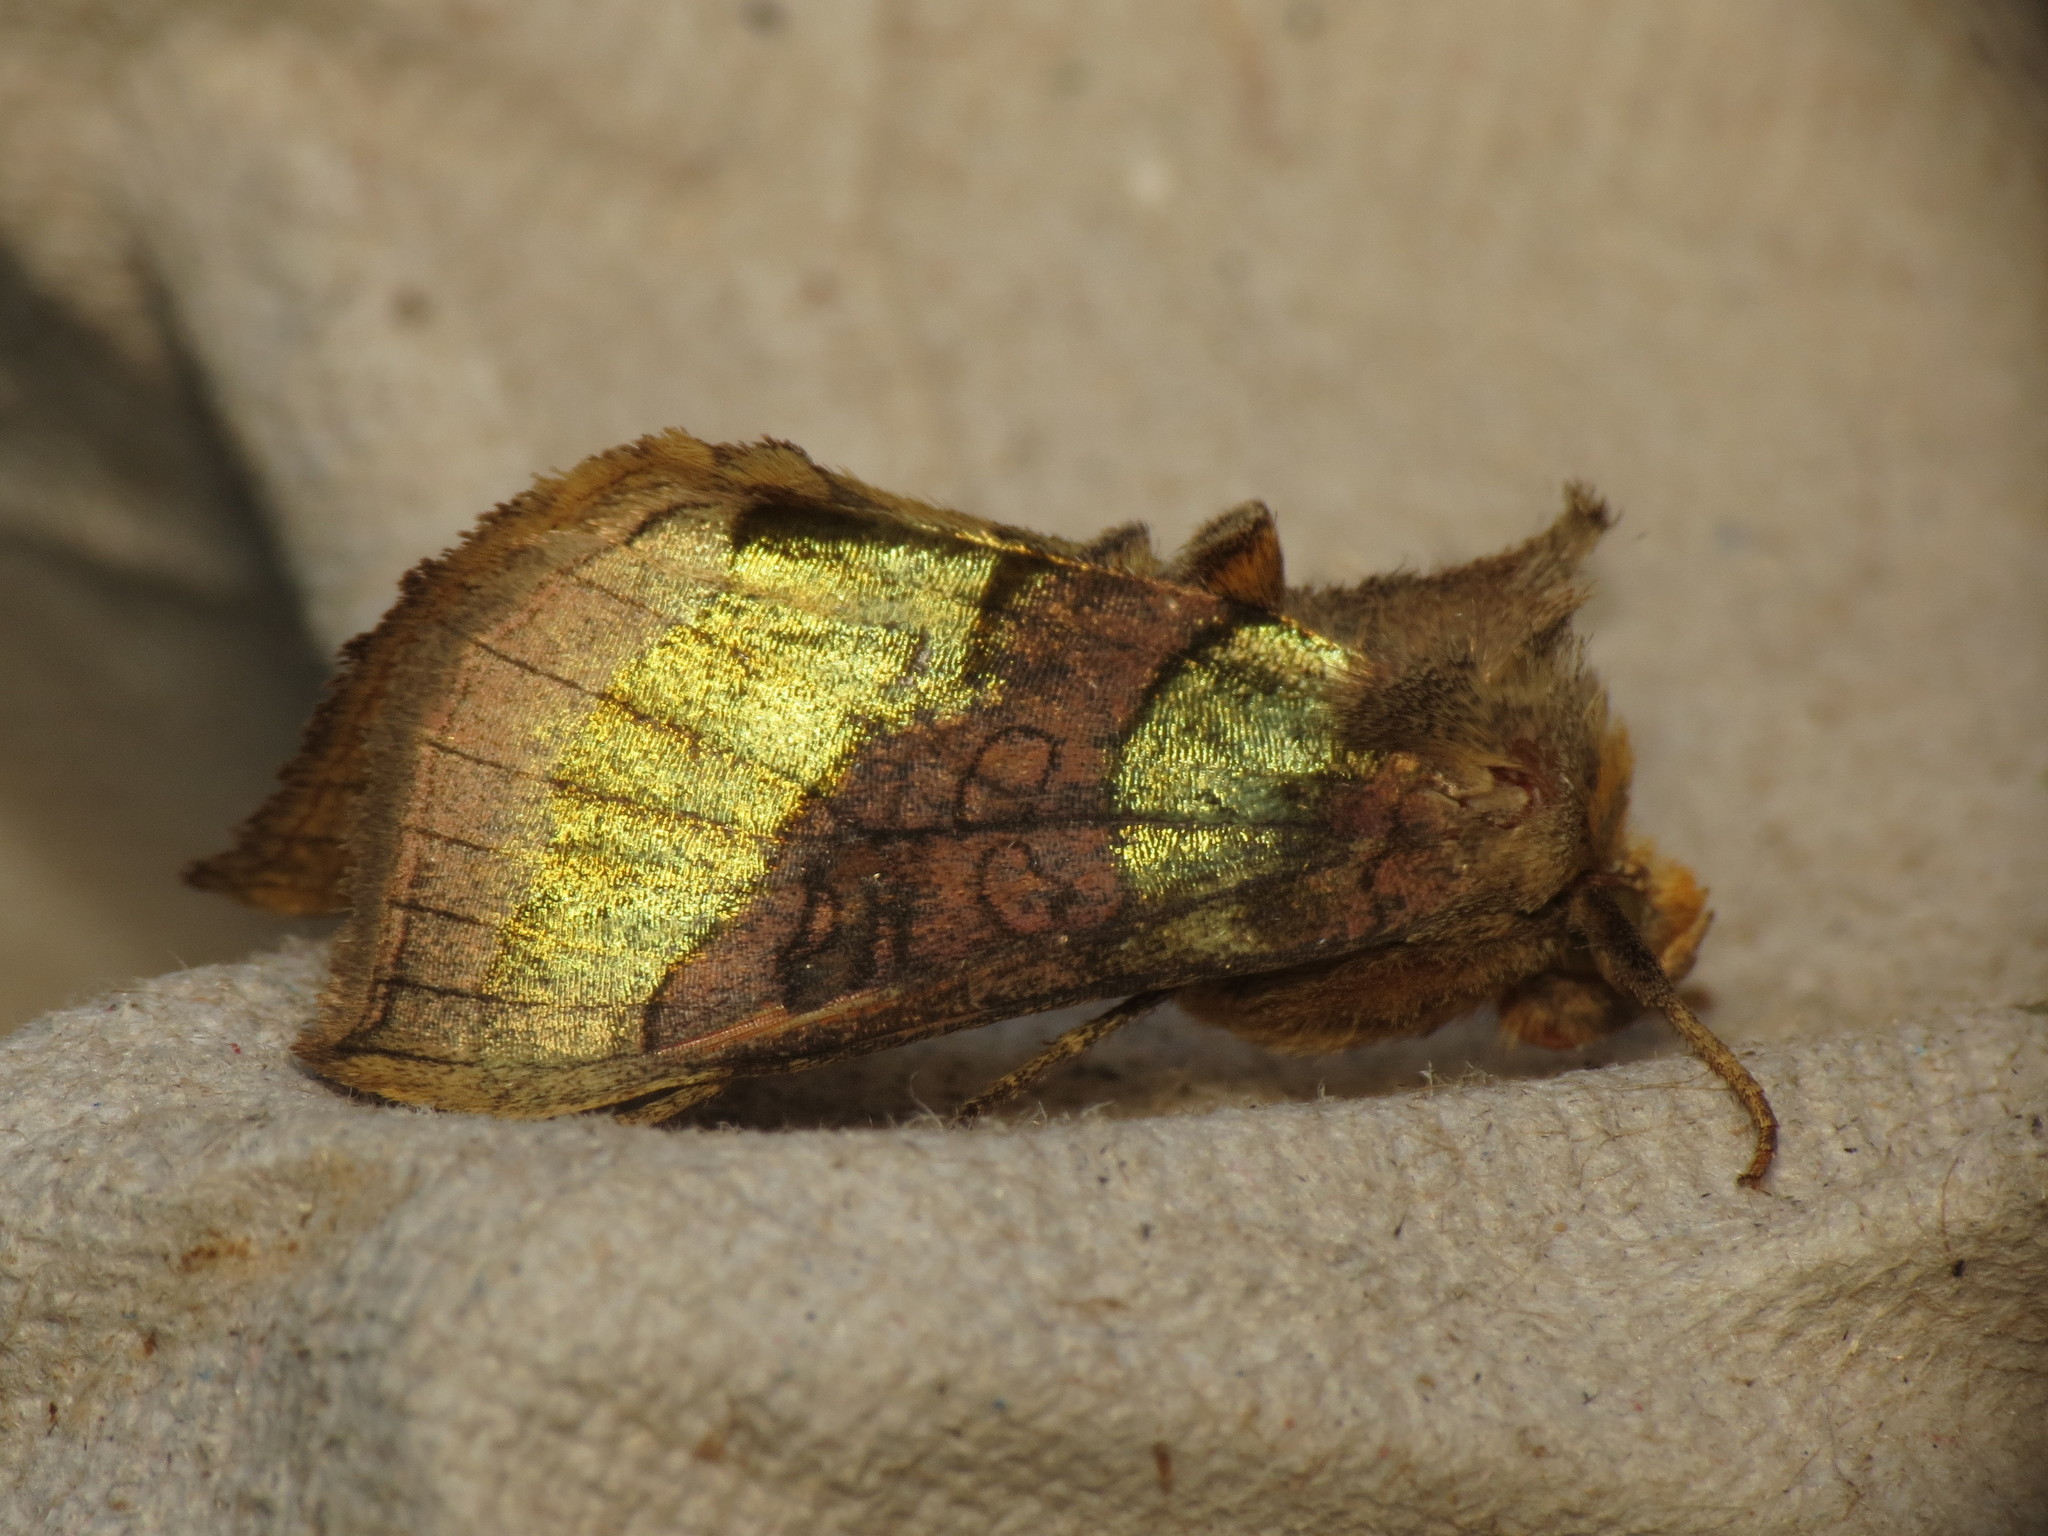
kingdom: Animalia
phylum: Arthropoda
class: Insecta
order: Lepidoptera
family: Noctuidae
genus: Diachrysia
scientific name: Diachrysia chrysitis
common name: Burnished brass
